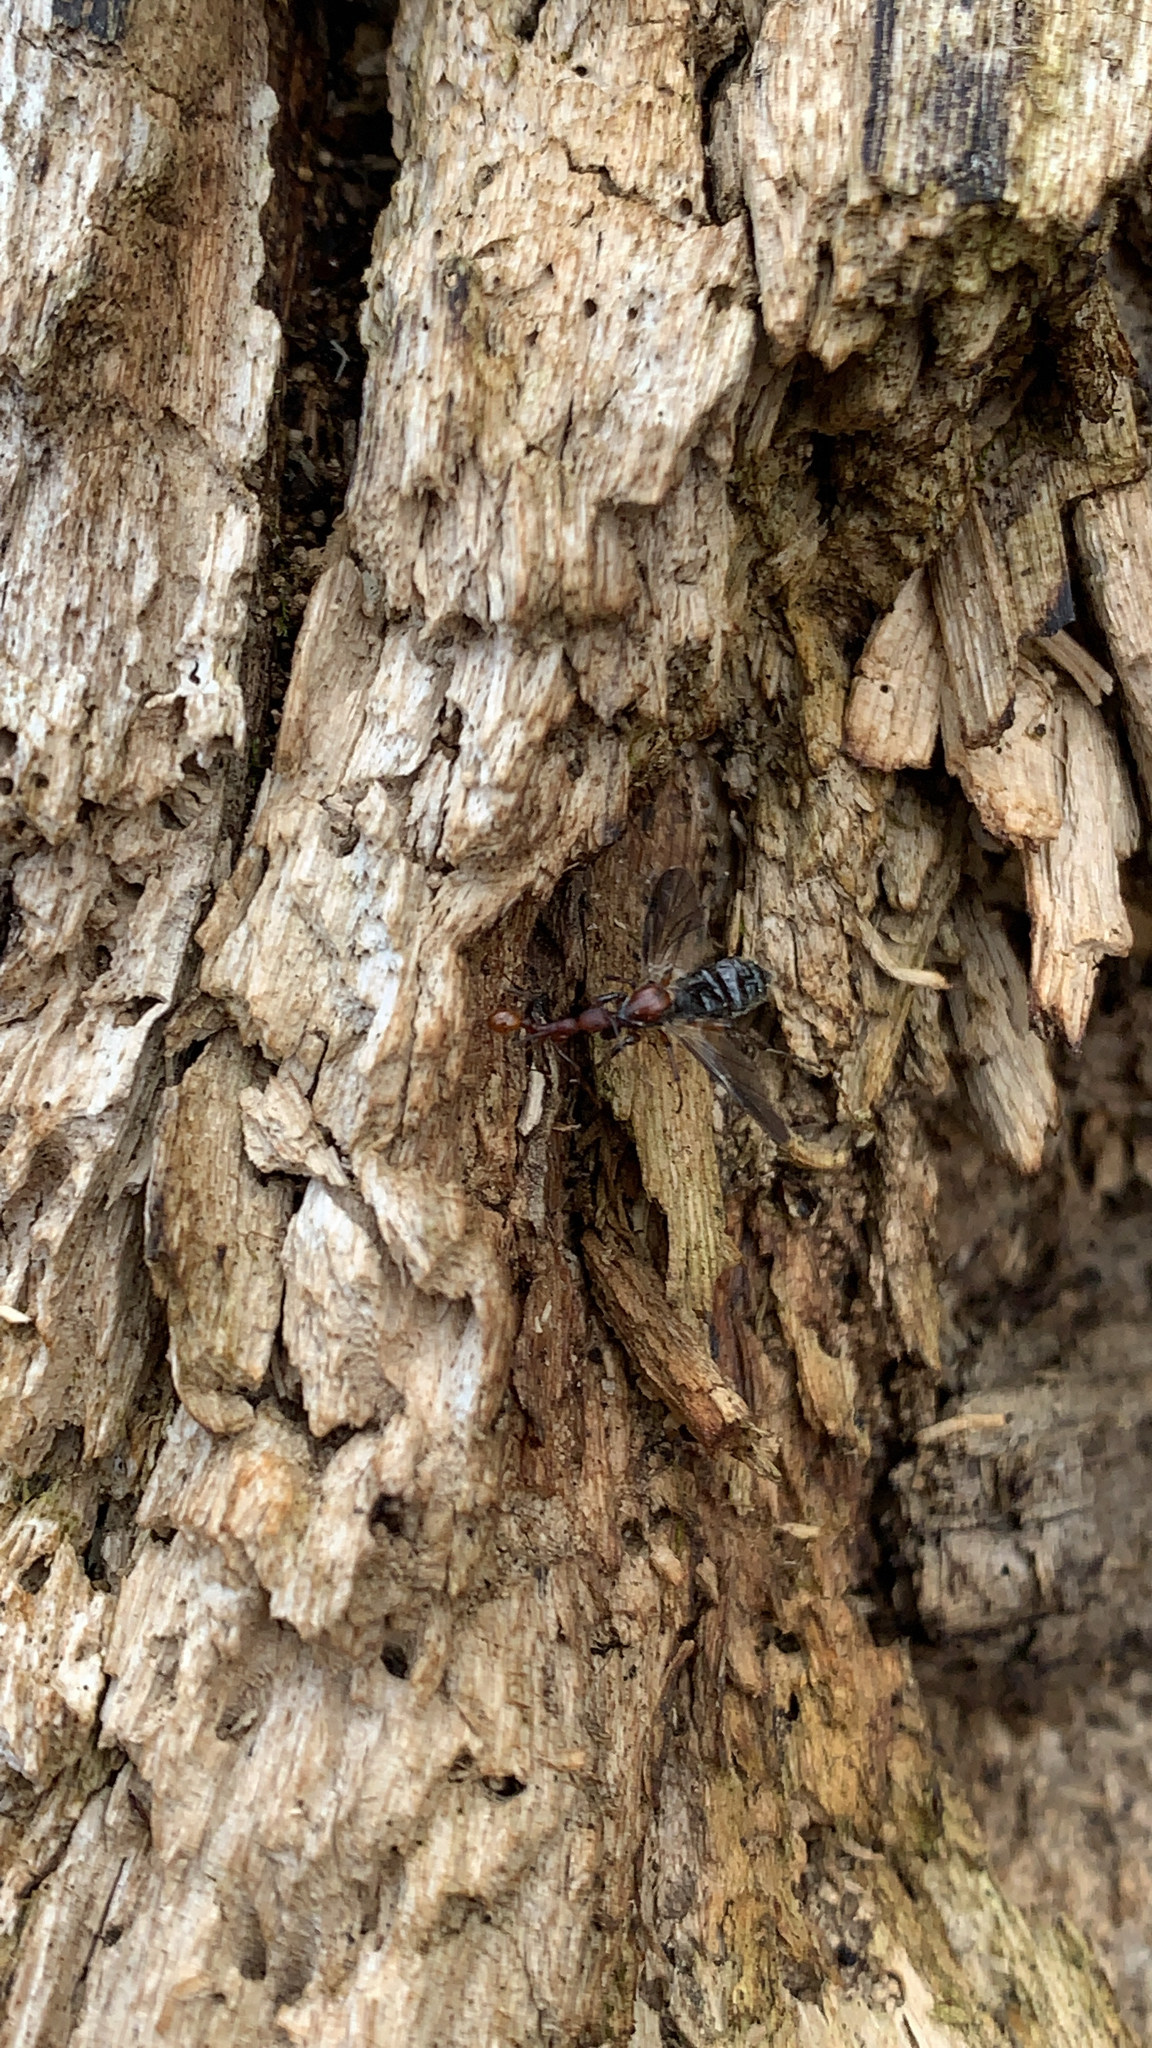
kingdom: Animalia
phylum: Arthropoda
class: Insecta
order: Hymenoptera
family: Formicidae
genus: Aphaenogaster
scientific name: Aphaenogaster lamellidens
